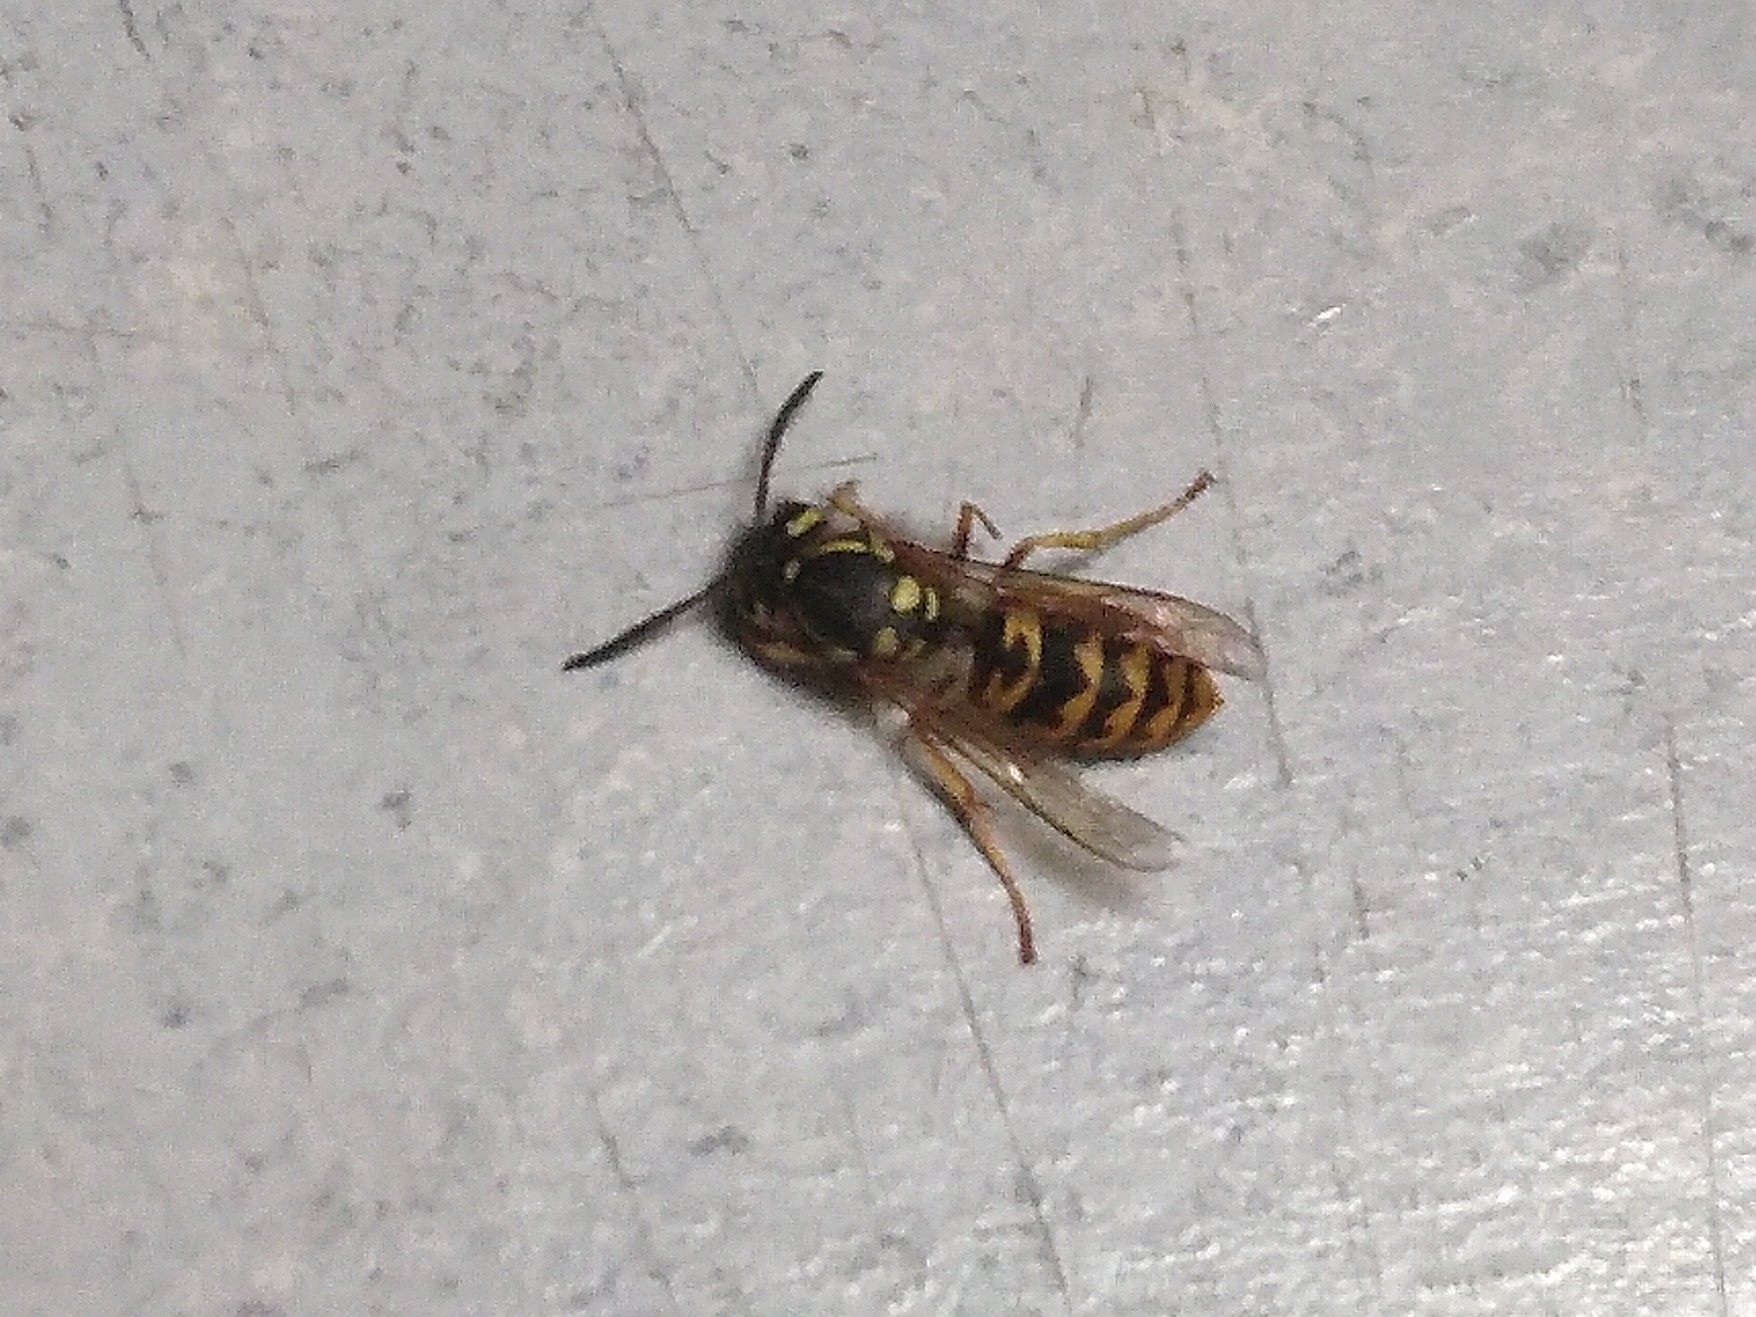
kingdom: Animalia
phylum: Arthropoda
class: Insecta
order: Hymenoptera
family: Vespidae
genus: Vespula
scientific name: Vespula germanica
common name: German wasp
